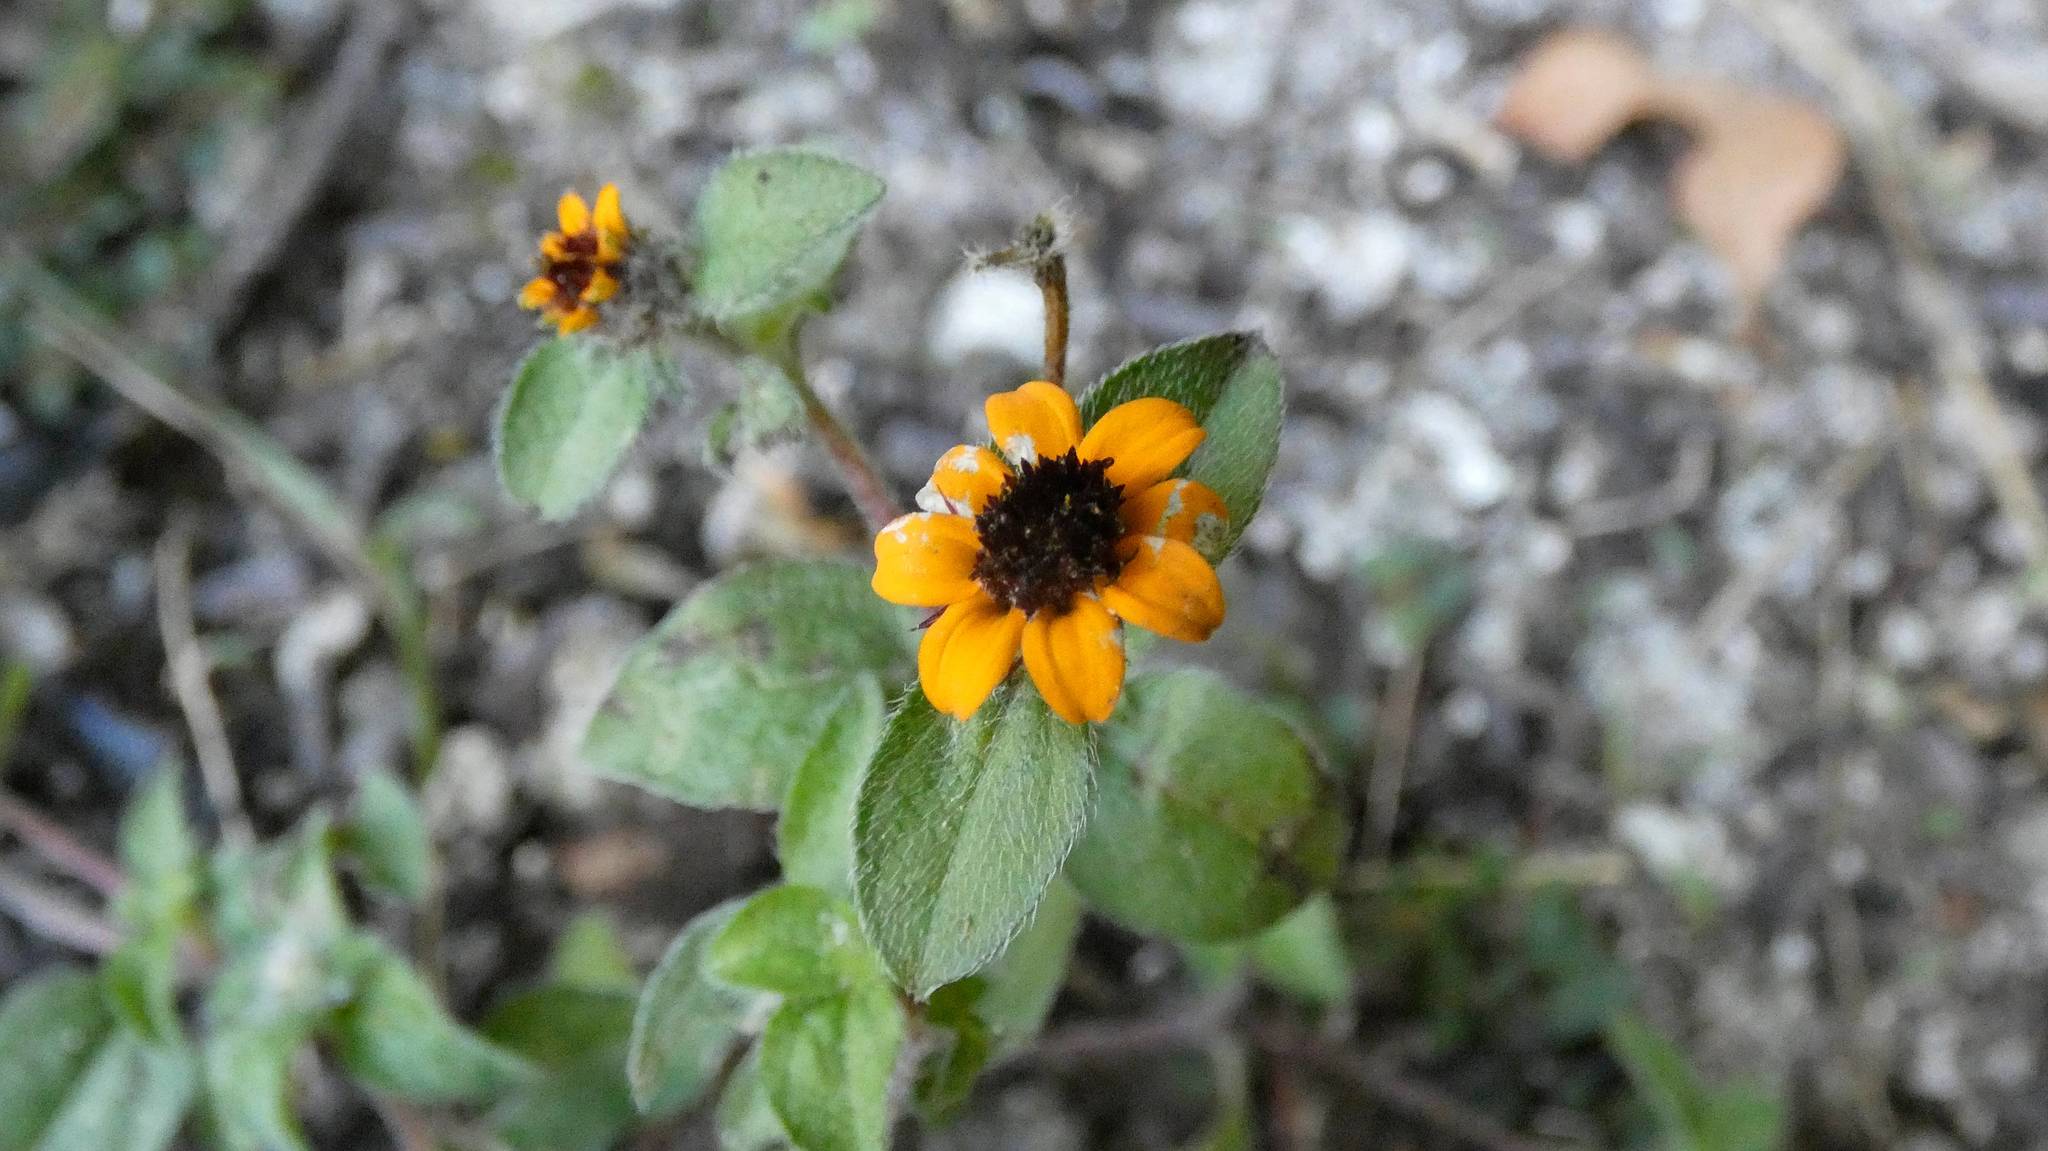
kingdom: Plantae
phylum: Tracheophyta
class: Magnoliopsida
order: Asterales
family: Asteraceae
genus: Sanvitalia
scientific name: Sanvitalia procumbens
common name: Mexican creeping zinnia
